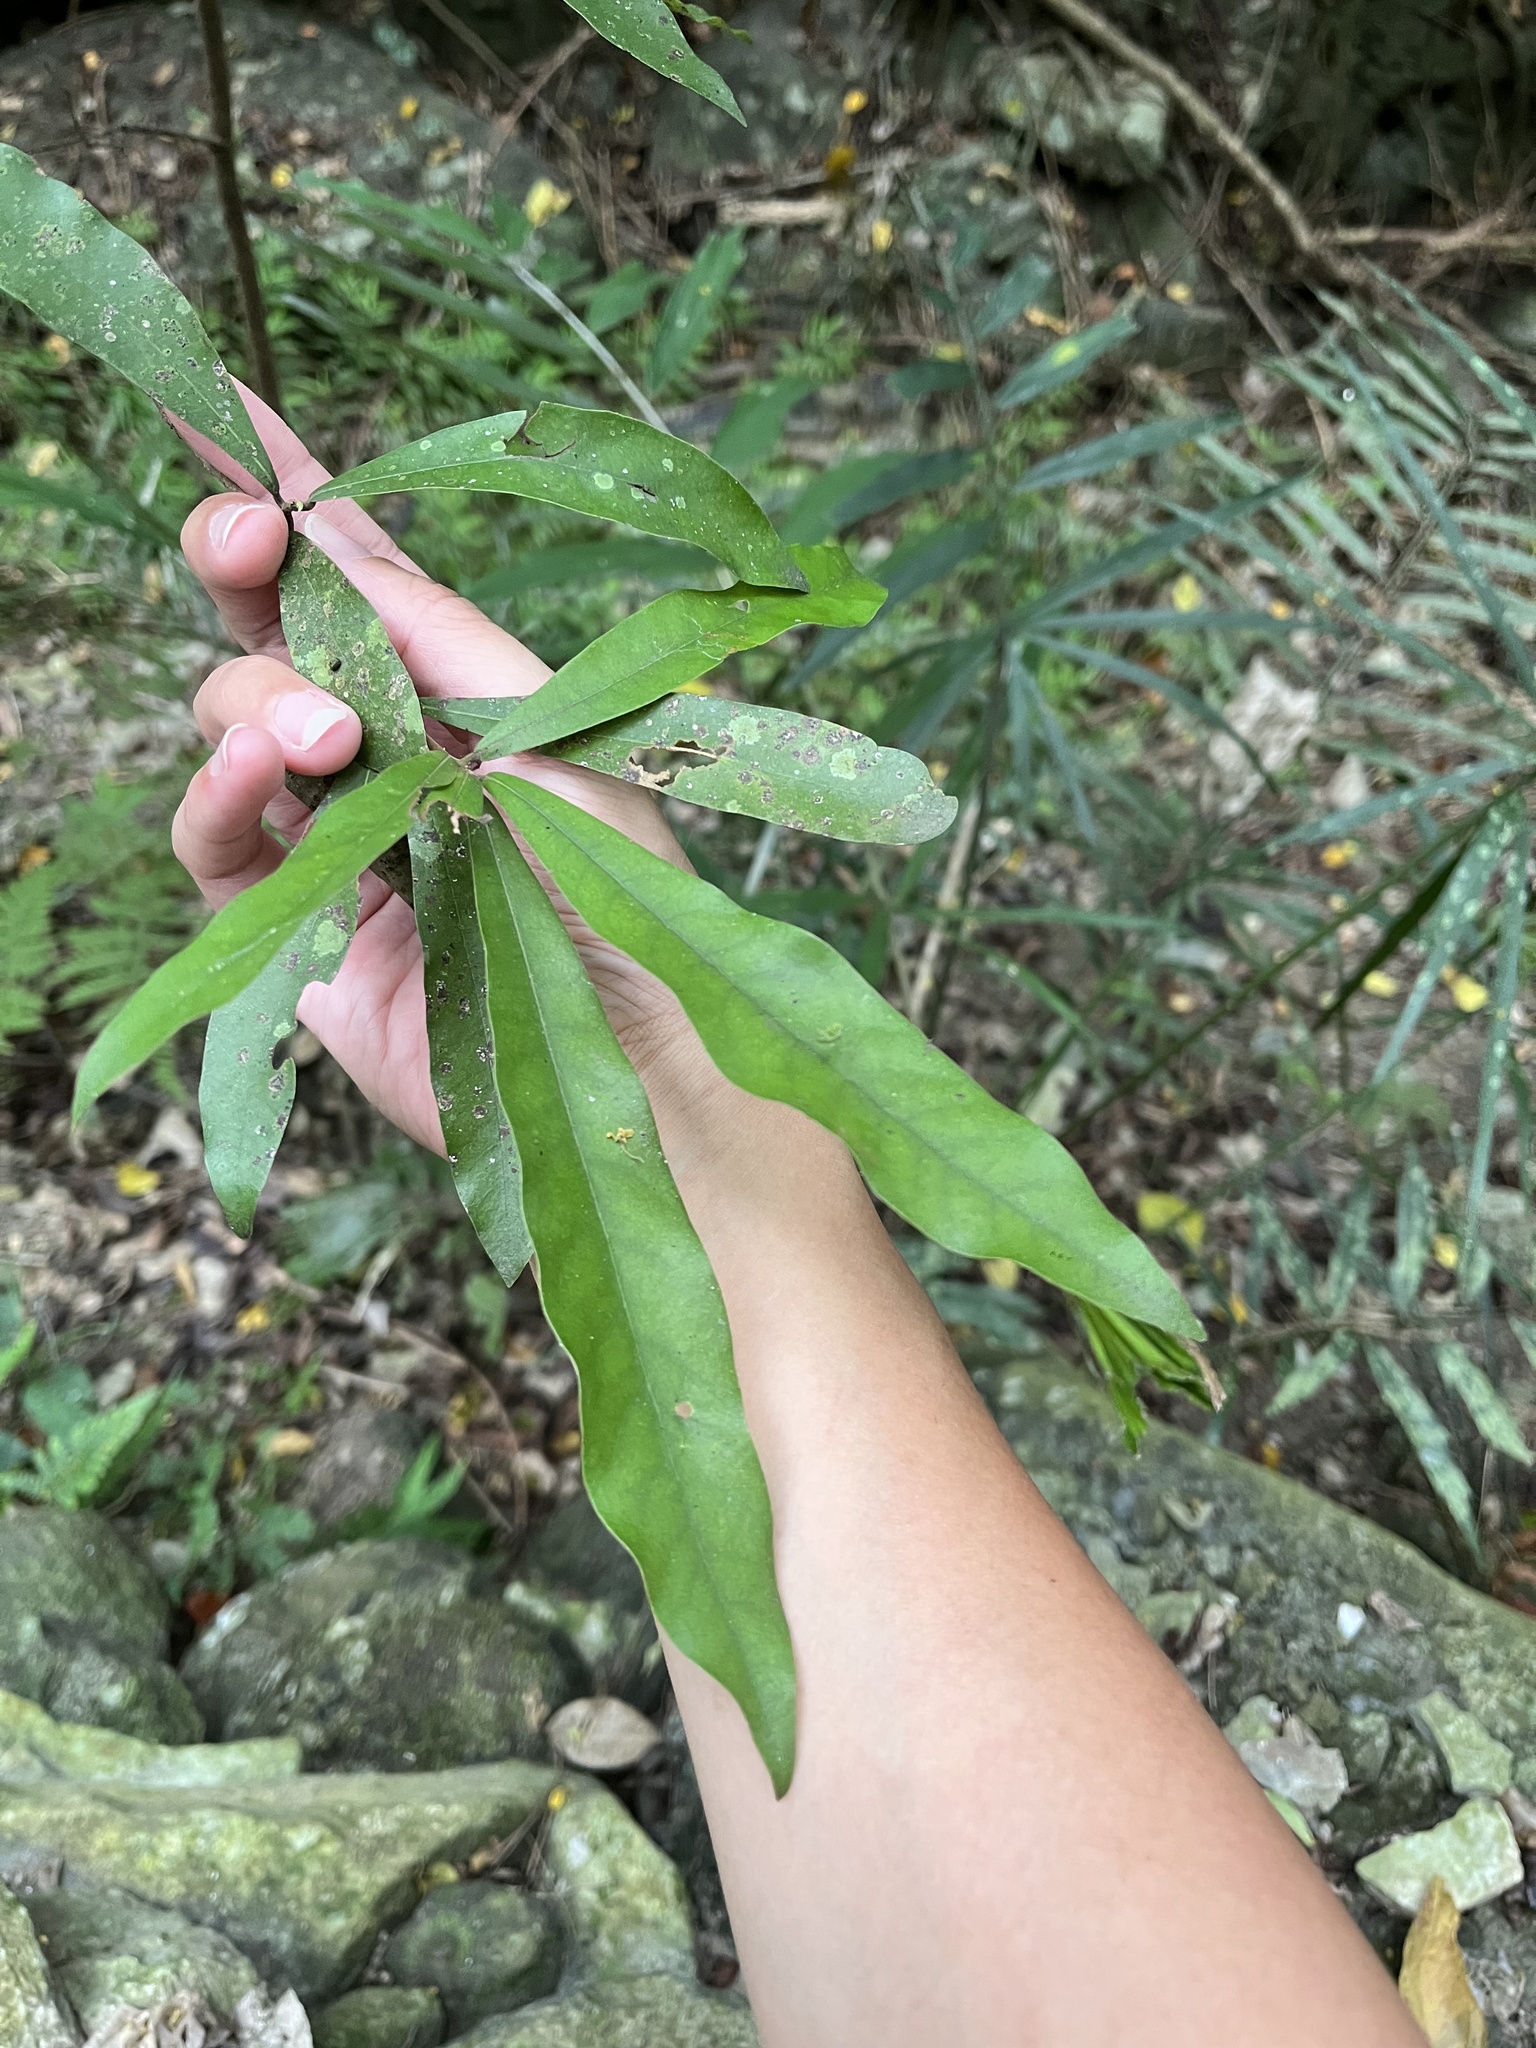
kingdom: Plantae
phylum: Tracheophyta
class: Magnoliopsida
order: Laurales
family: Lauraceae
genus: Litsea
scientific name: Litsea hypophaea
